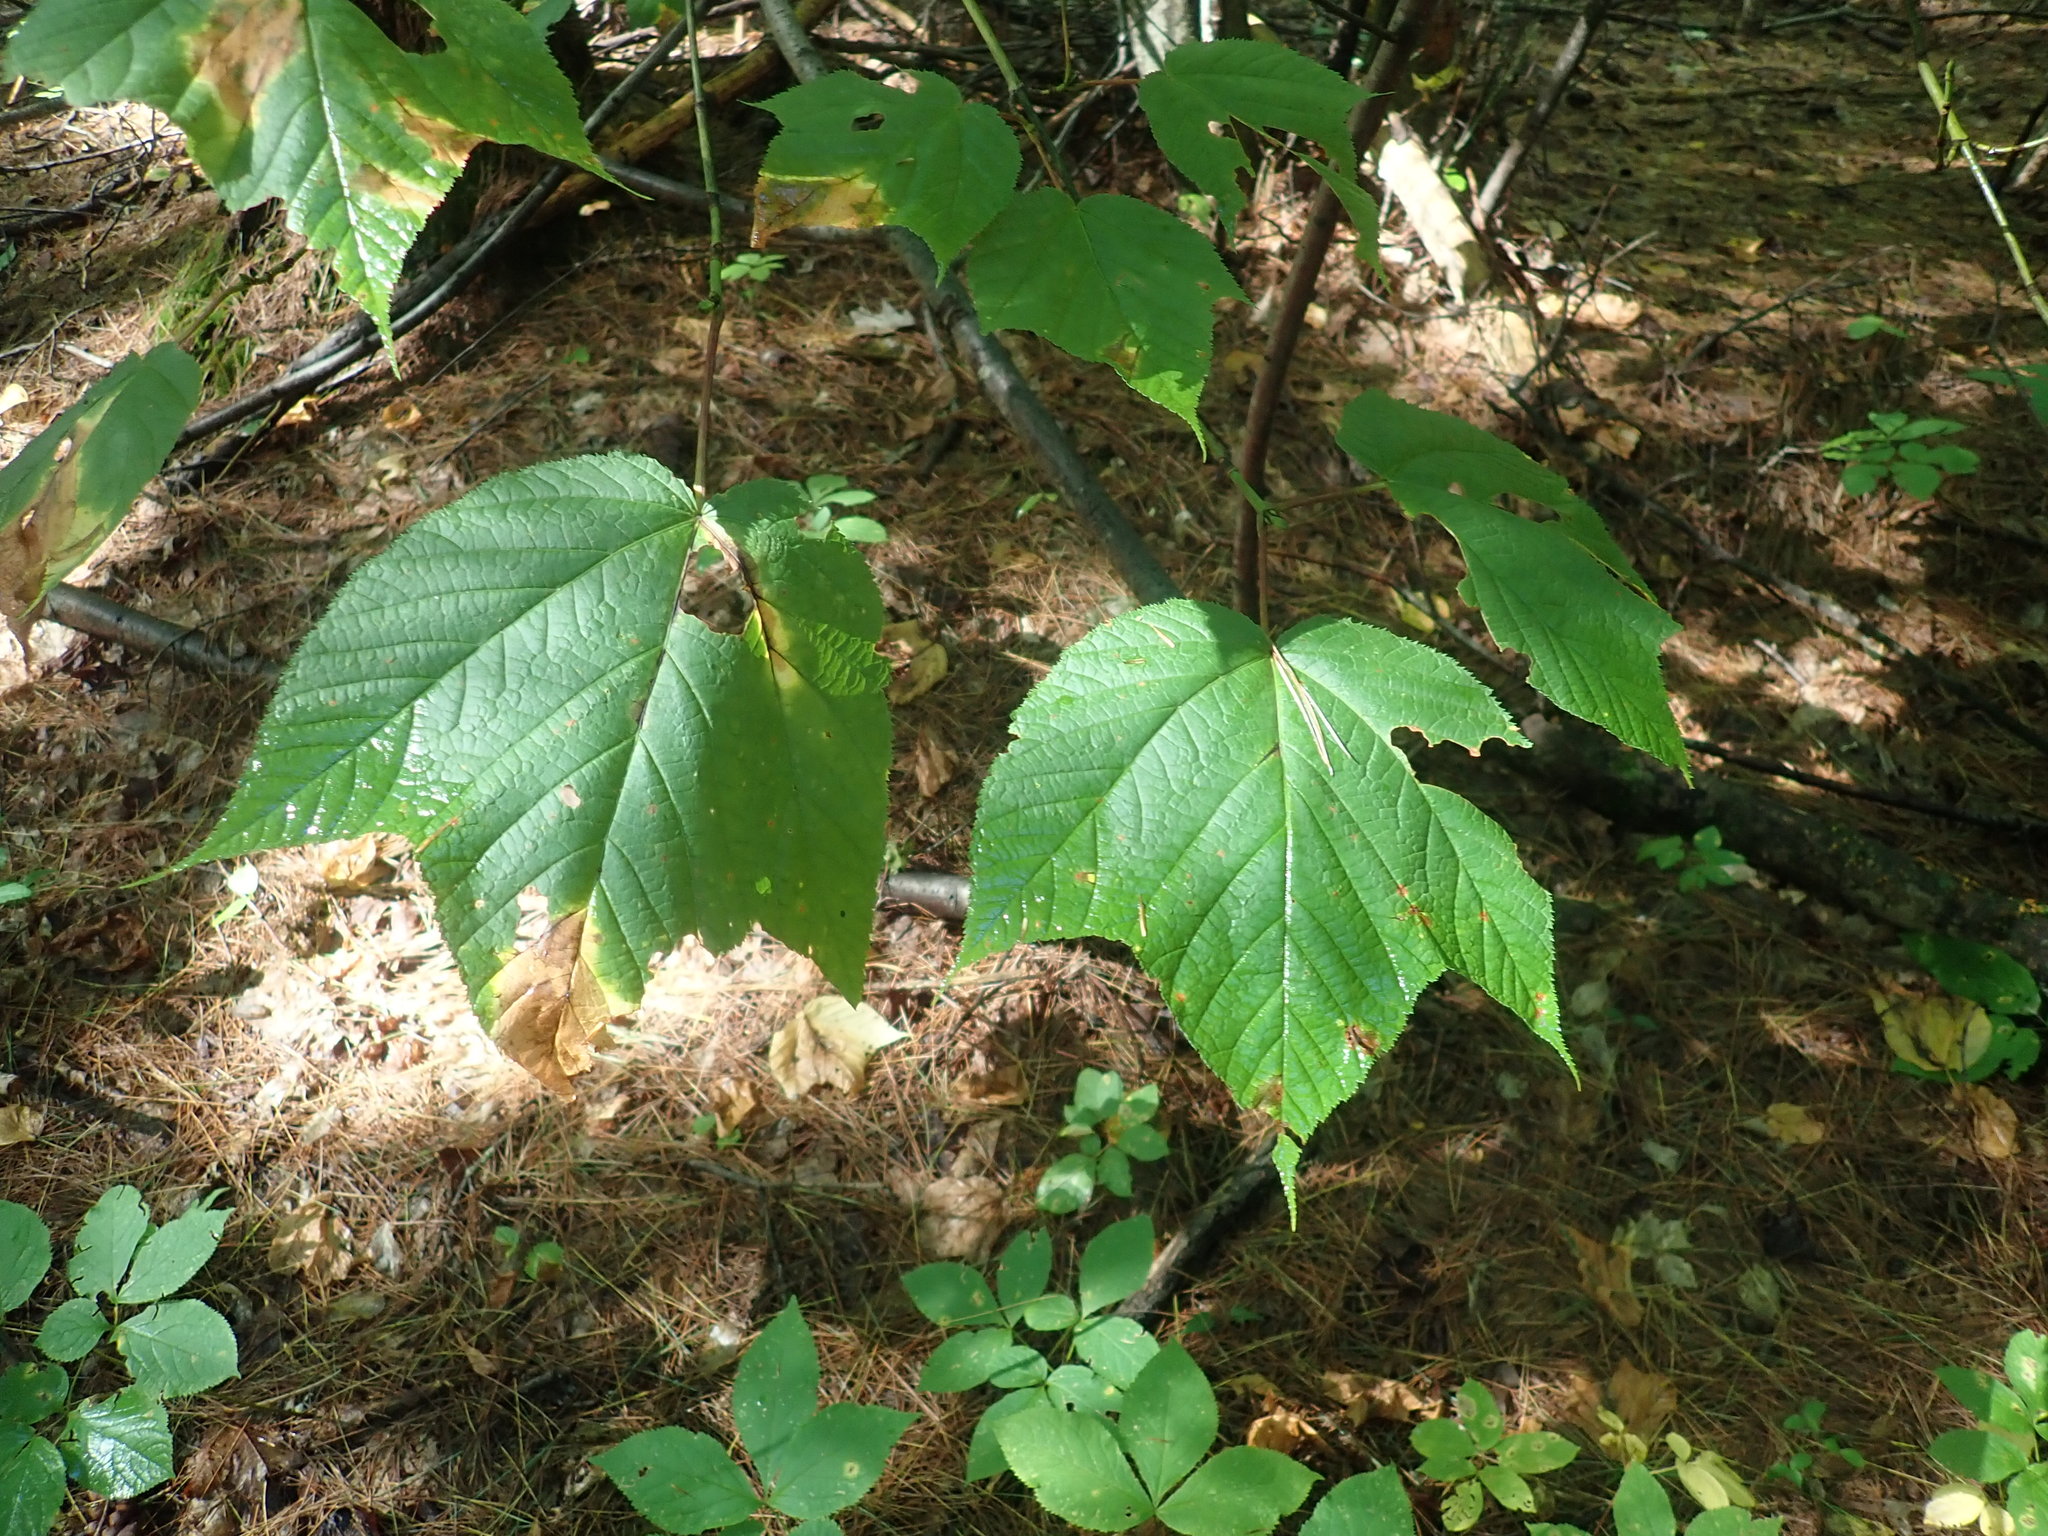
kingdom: Plantae
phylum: Tracheophyta
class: Magnoliopsida
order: Sapindales
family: Sapindaceae
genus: Acer
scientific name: Acer pensylvanicum
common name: Moosewood
